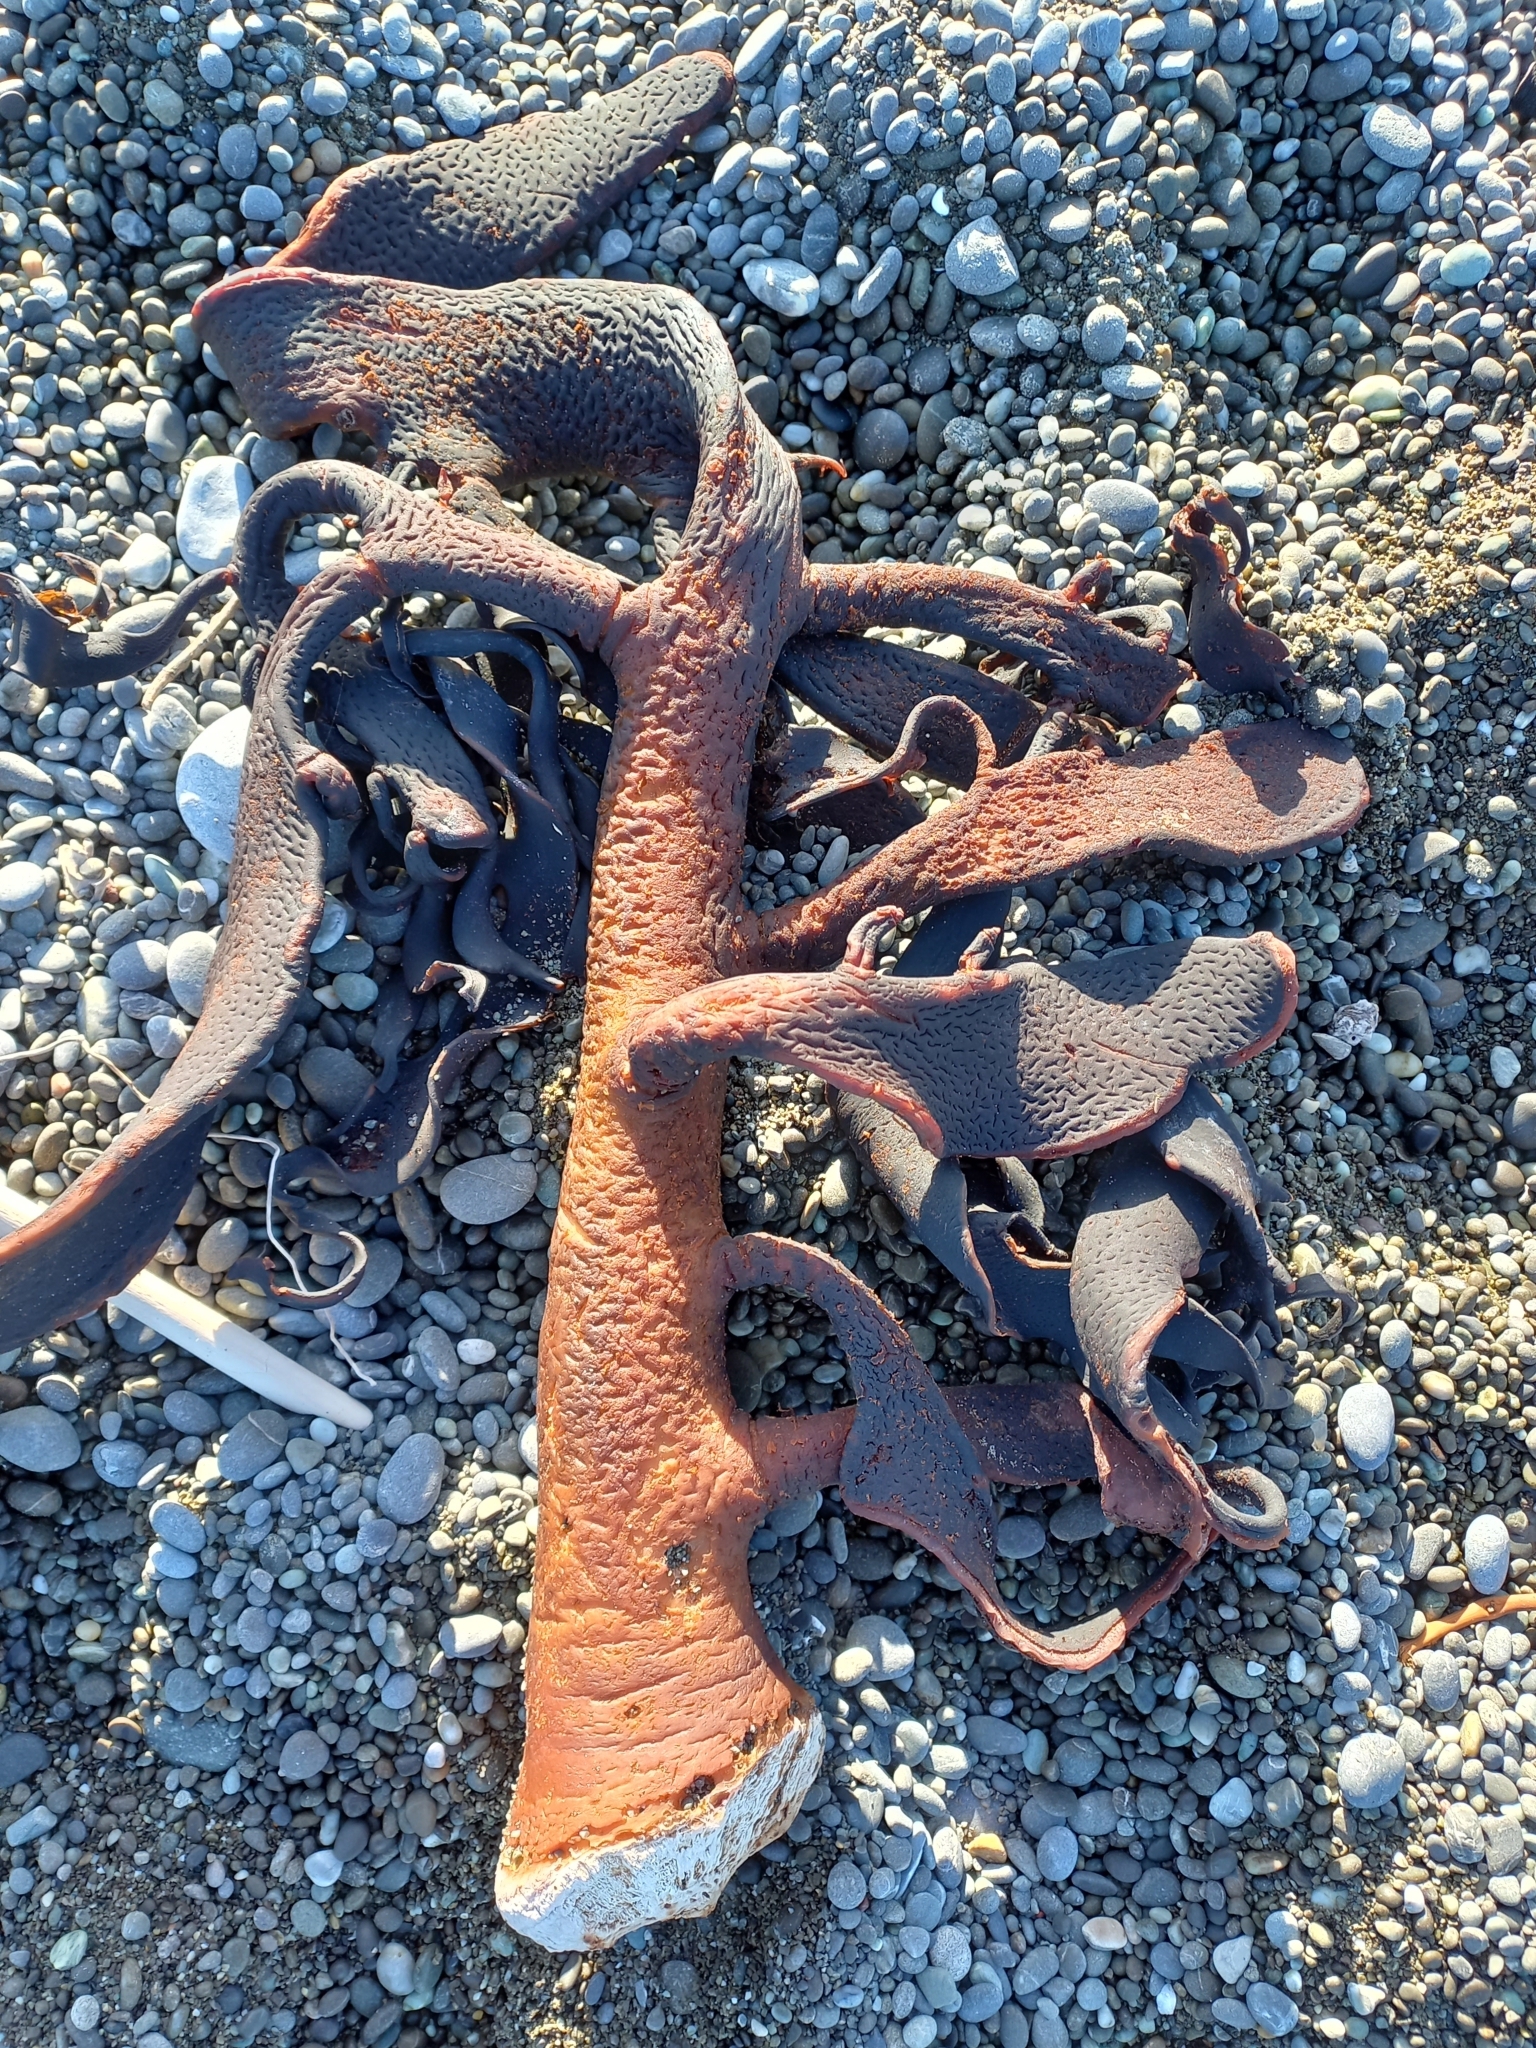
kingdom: Chromista
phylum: Ochrophyta
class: Phaeophyceae
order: Fucales
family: Durvillaeaceae
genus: Durvillaea
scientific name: Durvillaea willana
